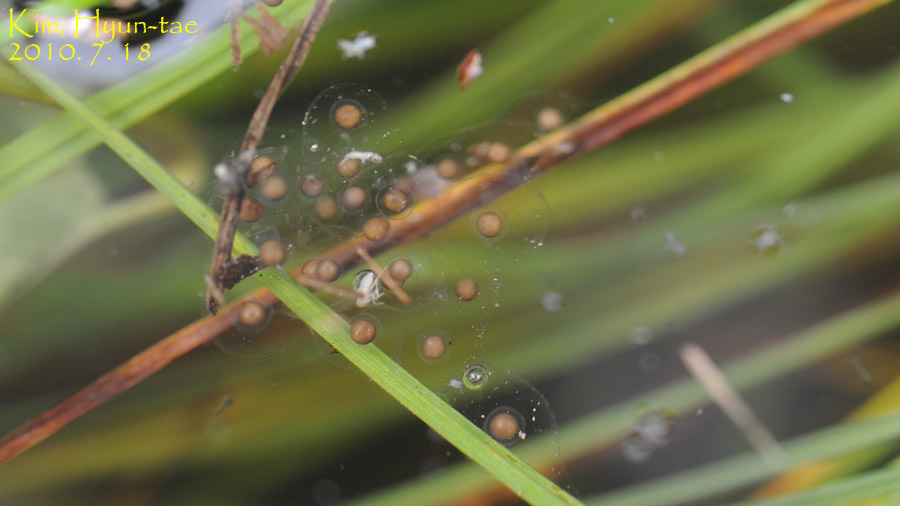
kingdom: Animalia
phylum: Chordata
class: Amphibia
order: Anura
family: Hylidae
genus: Dryophytes
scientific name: Dryophytes japonicus
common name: Japanese treefrog
